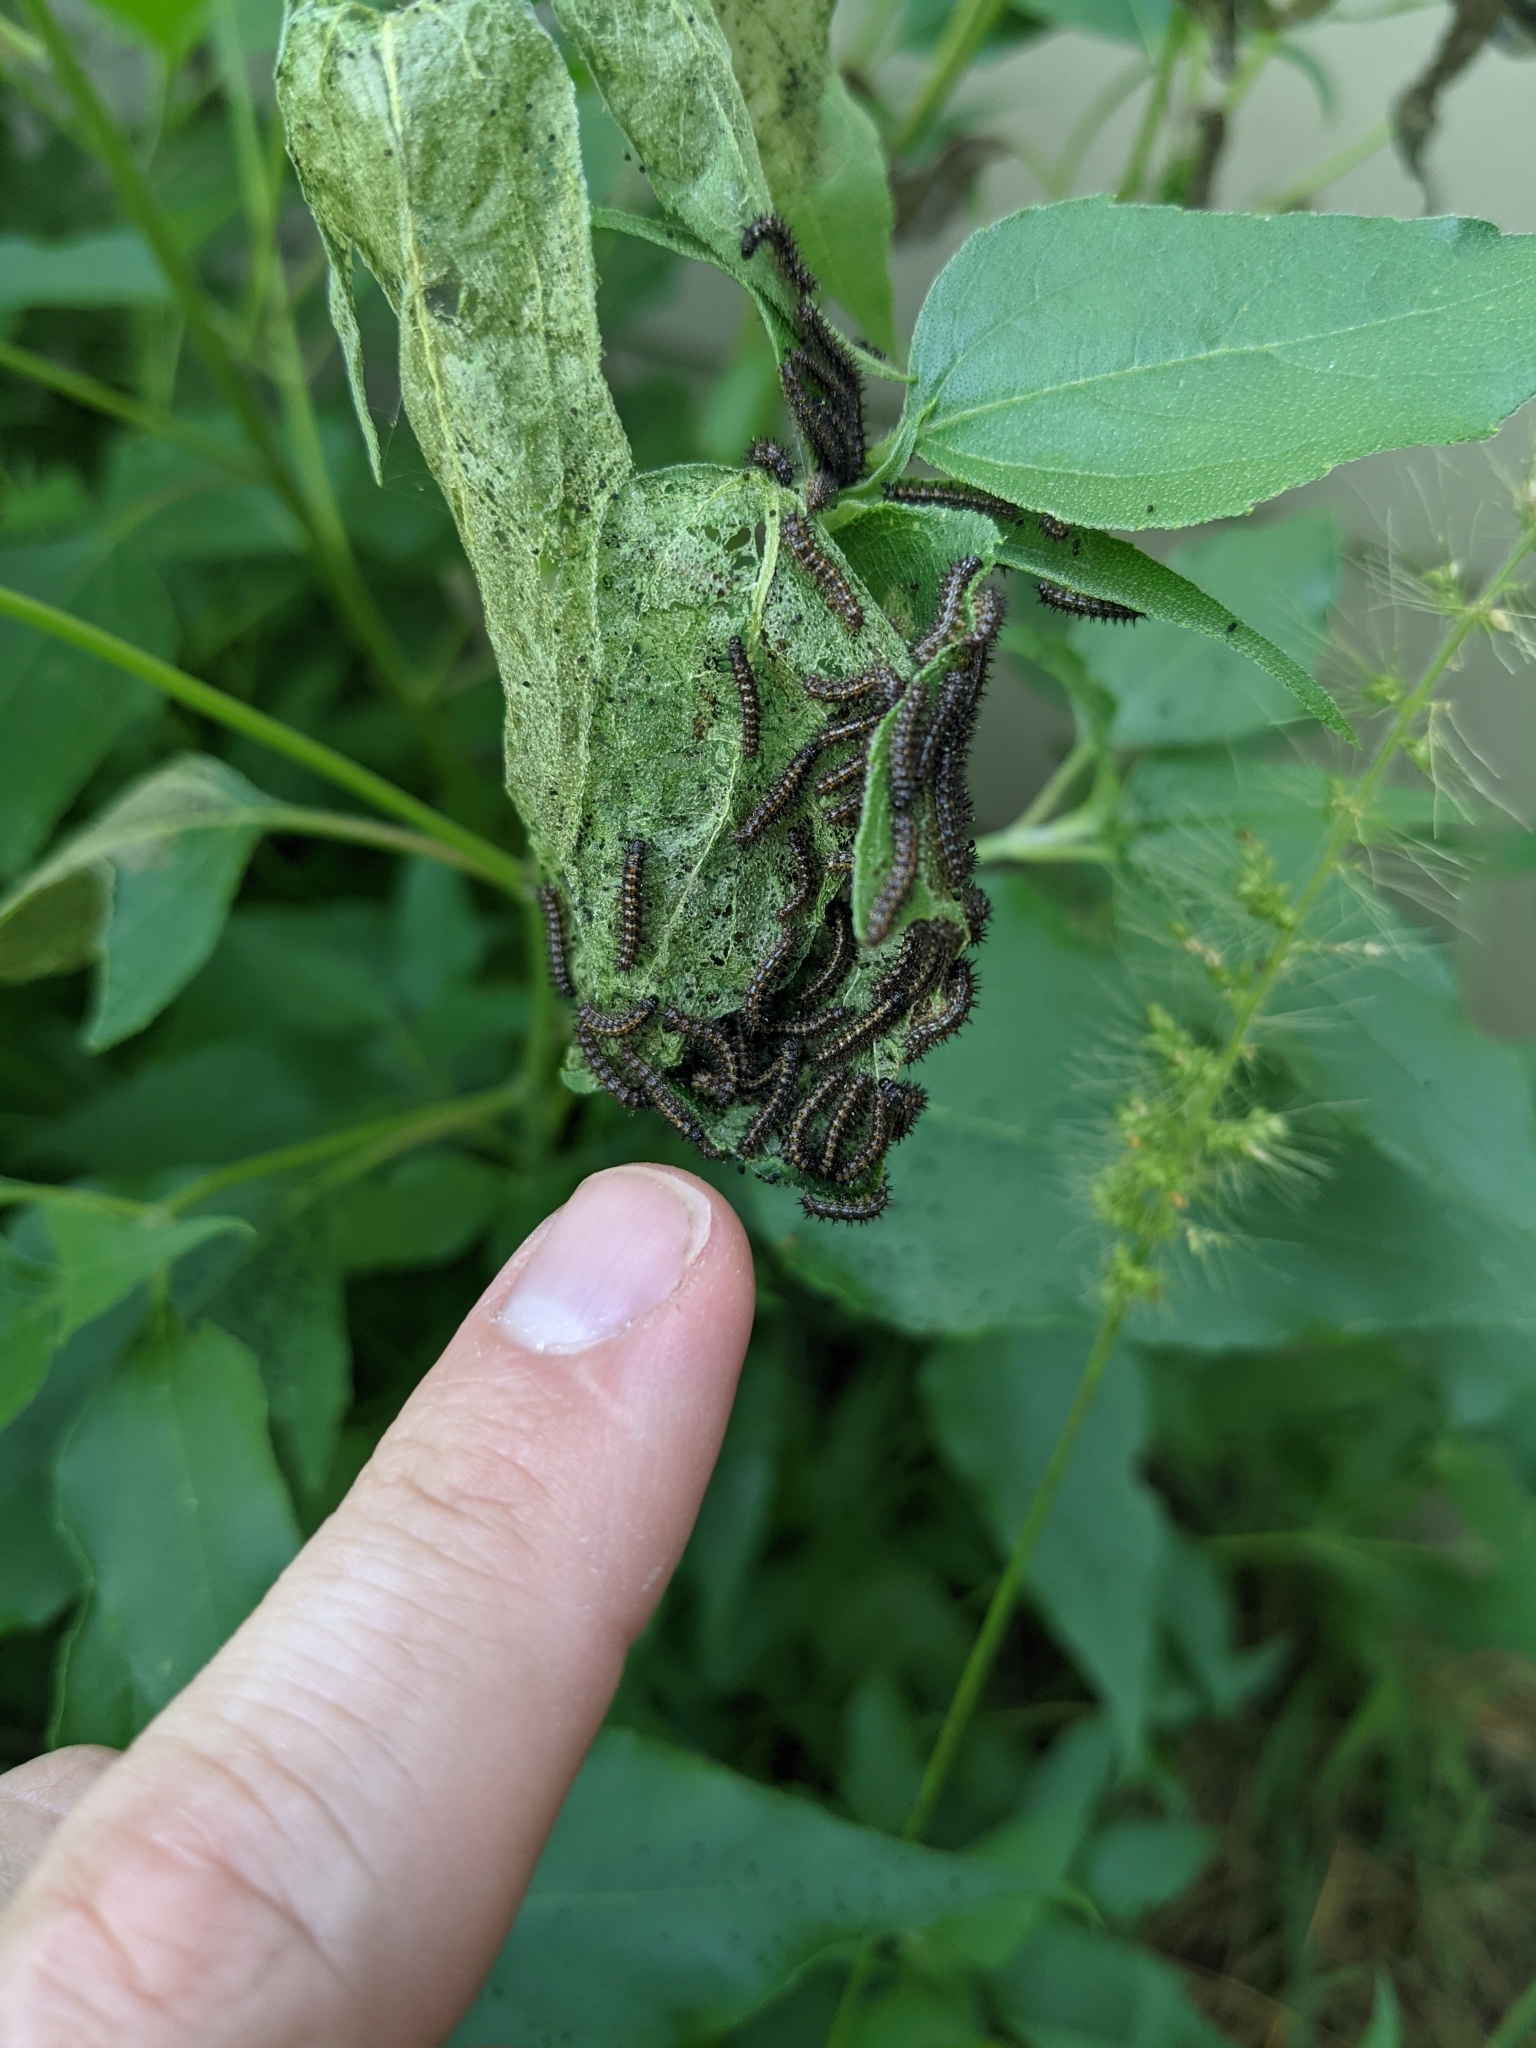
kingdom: Animalia
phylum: Arthropoda
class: Insecta
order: Lepidoptera
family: Nymphalidae
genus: Chlosyne
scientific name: Chlosyne lacinia
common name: Bordered patch
